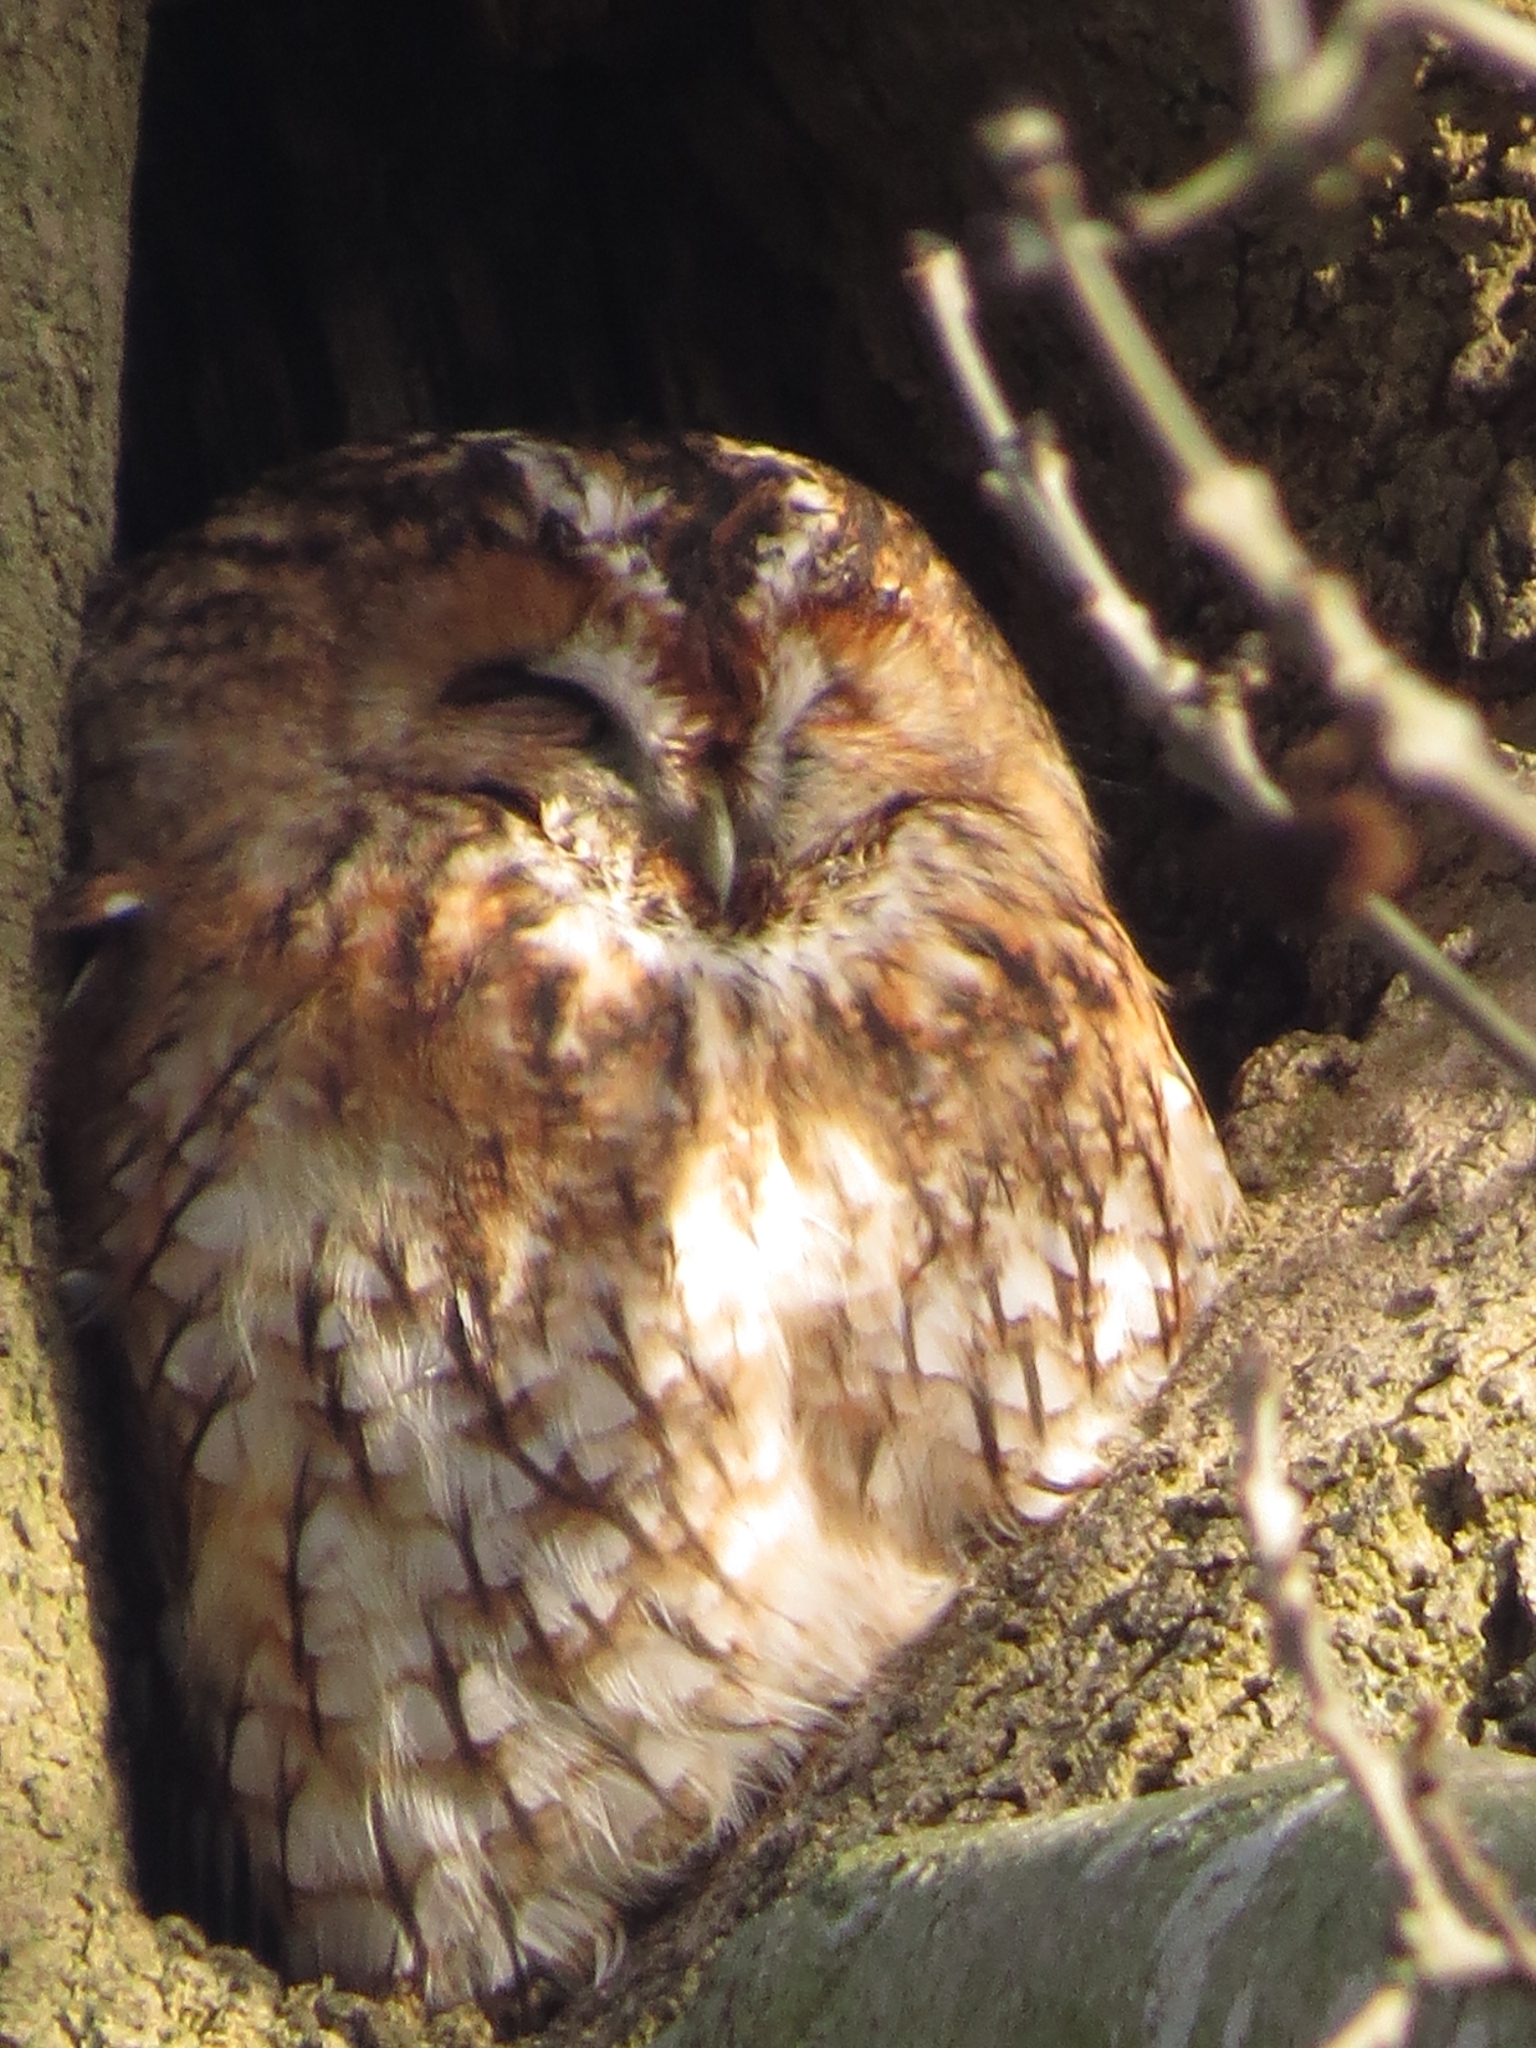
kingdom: Animalia
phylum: Chordata
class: Aves
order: Strigiformes
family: Strigidae
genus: Strix
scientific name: Strix aluco
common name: Tawny owl
